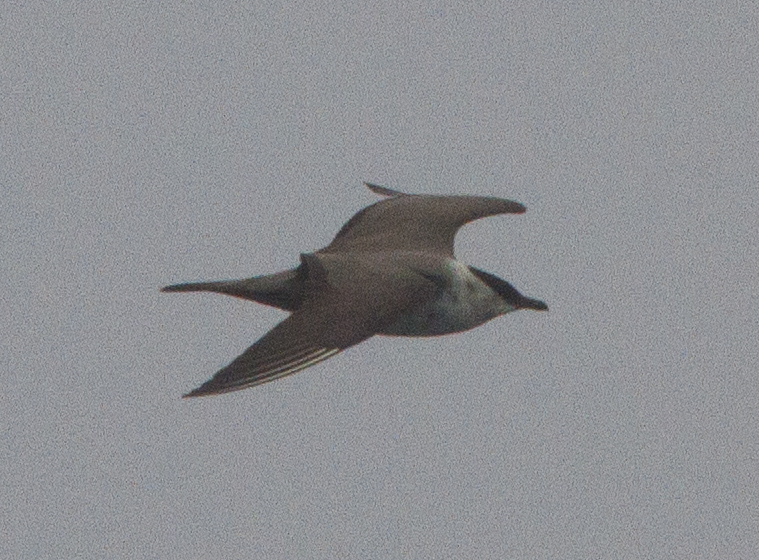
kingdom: Animalia
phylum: Chordata
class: Aves
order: Charadriiformes
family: Stercorariidae
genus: Stercorarius
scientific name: Stercorarius longicaudus
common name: Long-tailed jaeger
